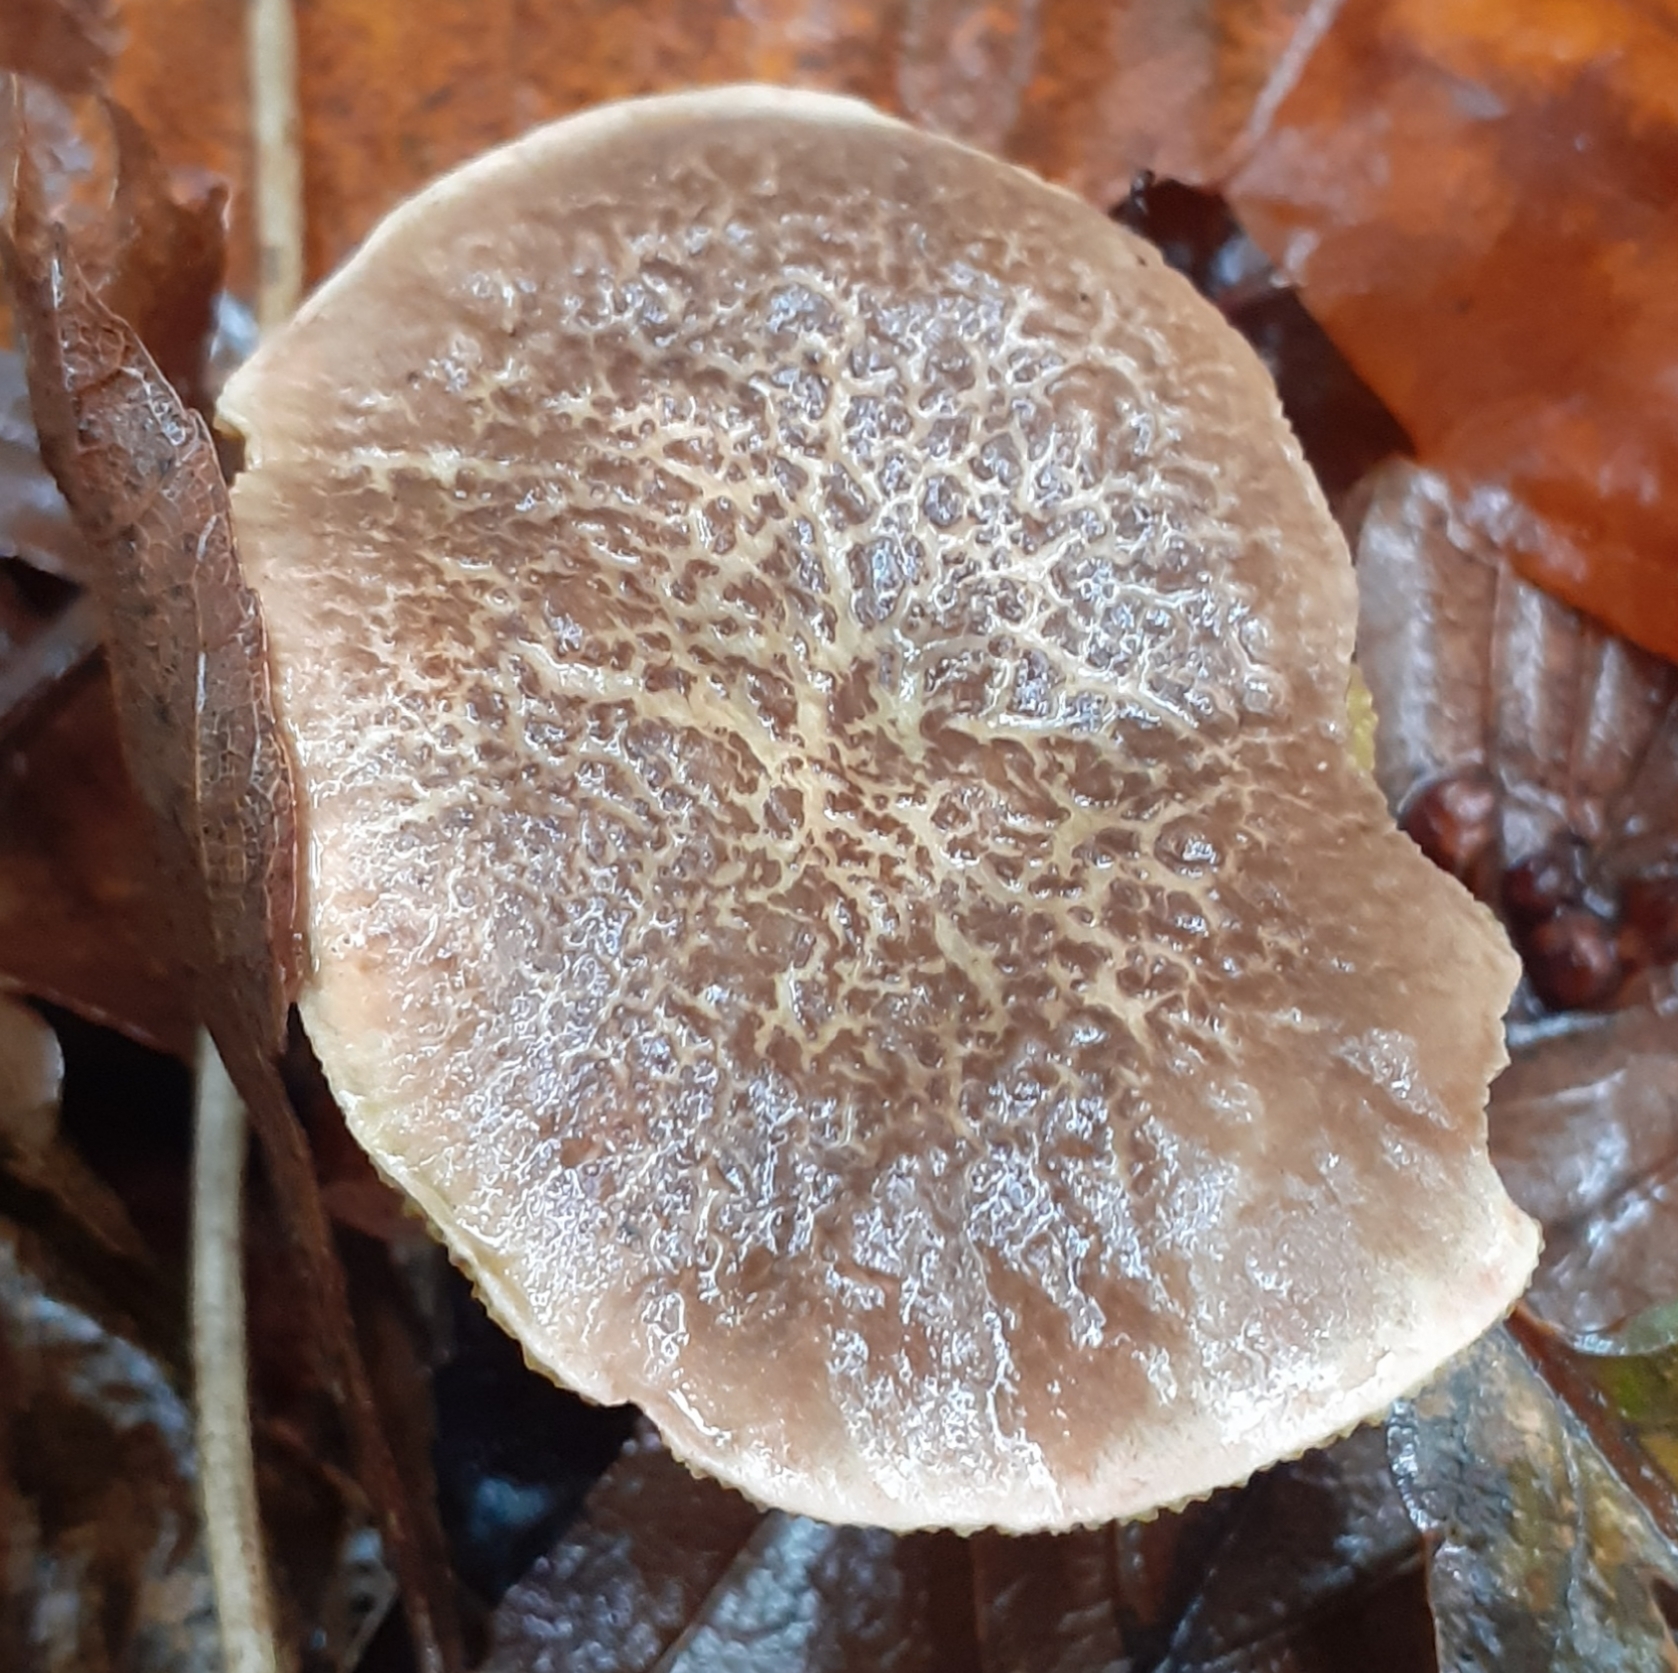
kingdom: Fungi
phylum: Basidiomycota
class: Agaricomycetes
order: Boletales
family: Boletaceae
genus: Xerocomellus
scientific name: Xerocomellus chrysenteron
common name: Red-cracking bolete
